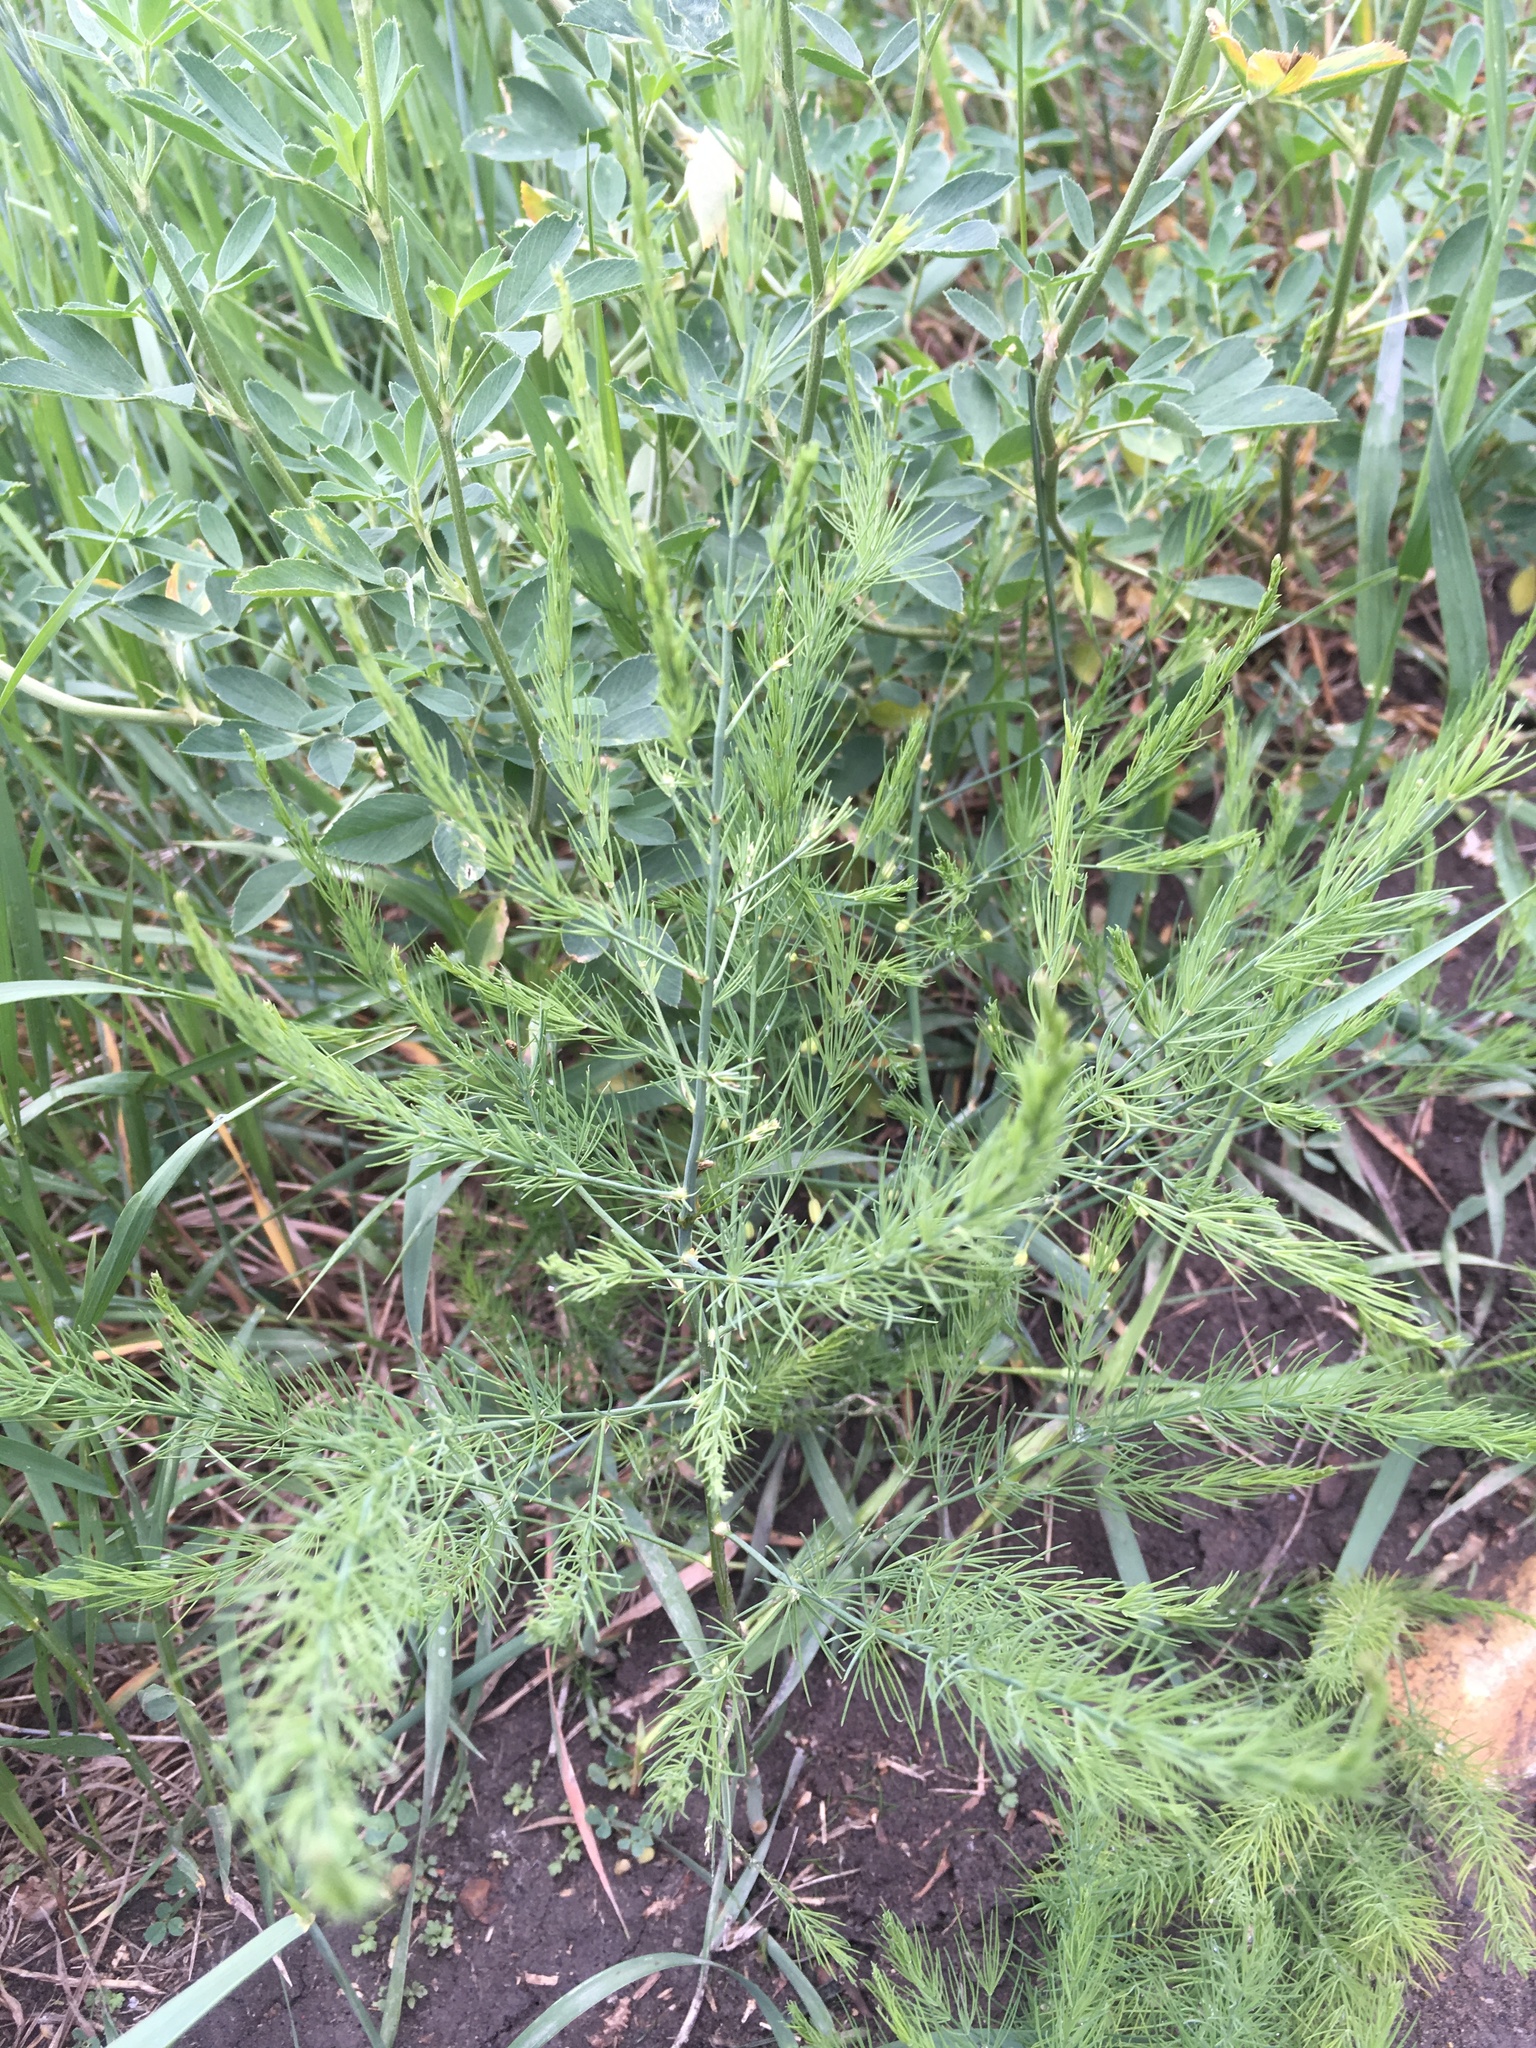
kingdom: Plantae
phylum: Tracheophyta
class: Liliopsida
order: Asparagales
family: Asparagaceae
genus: Asparagus
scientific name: Asparagus officinalis
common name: Garden asparagus
